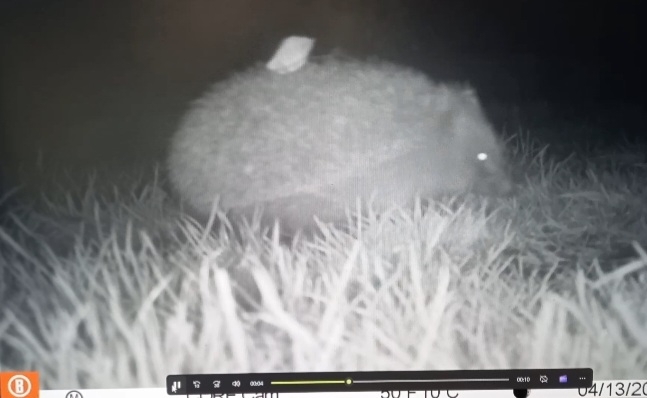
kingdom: Animalia
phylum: Chordata
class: Mammalia
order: Erinaceomorpha
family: Erinaceidae
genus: Erinaceus
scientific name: Erinaceus europaeus
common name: West european hedgehog
